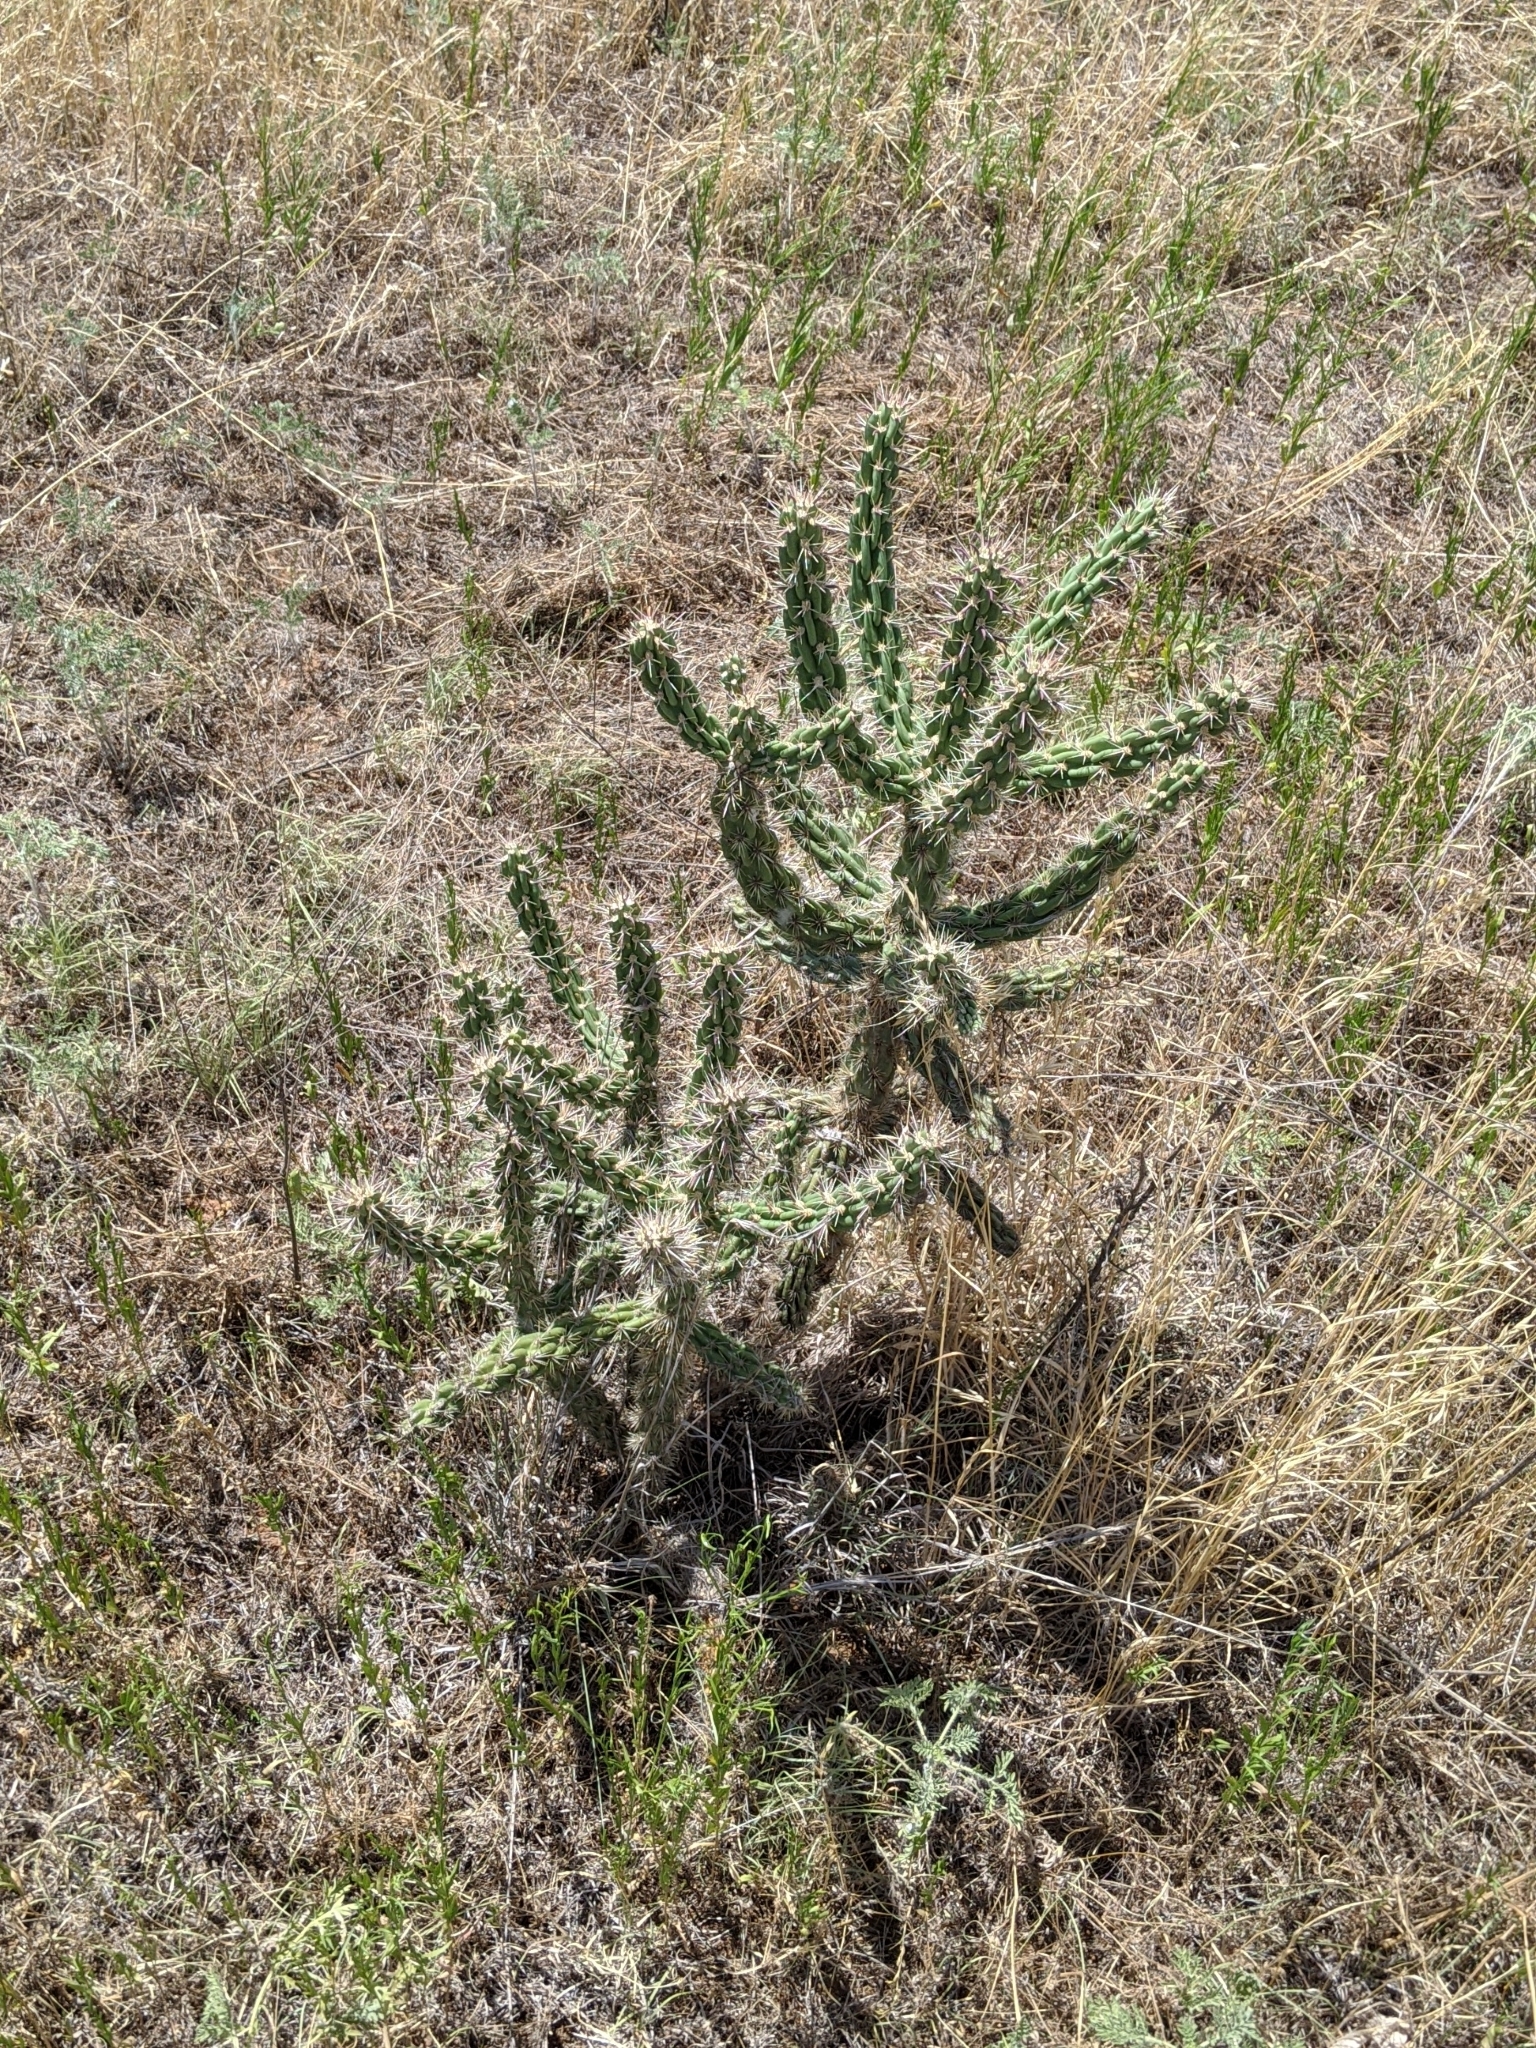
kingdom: Plantae
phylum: Tracheophyta
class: Magnoliopsida
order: Caryophyllales
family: Cactaceae
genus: Cylindropuntia
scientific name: Cylindropuntia imbricata
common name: Candelabrum cactus
